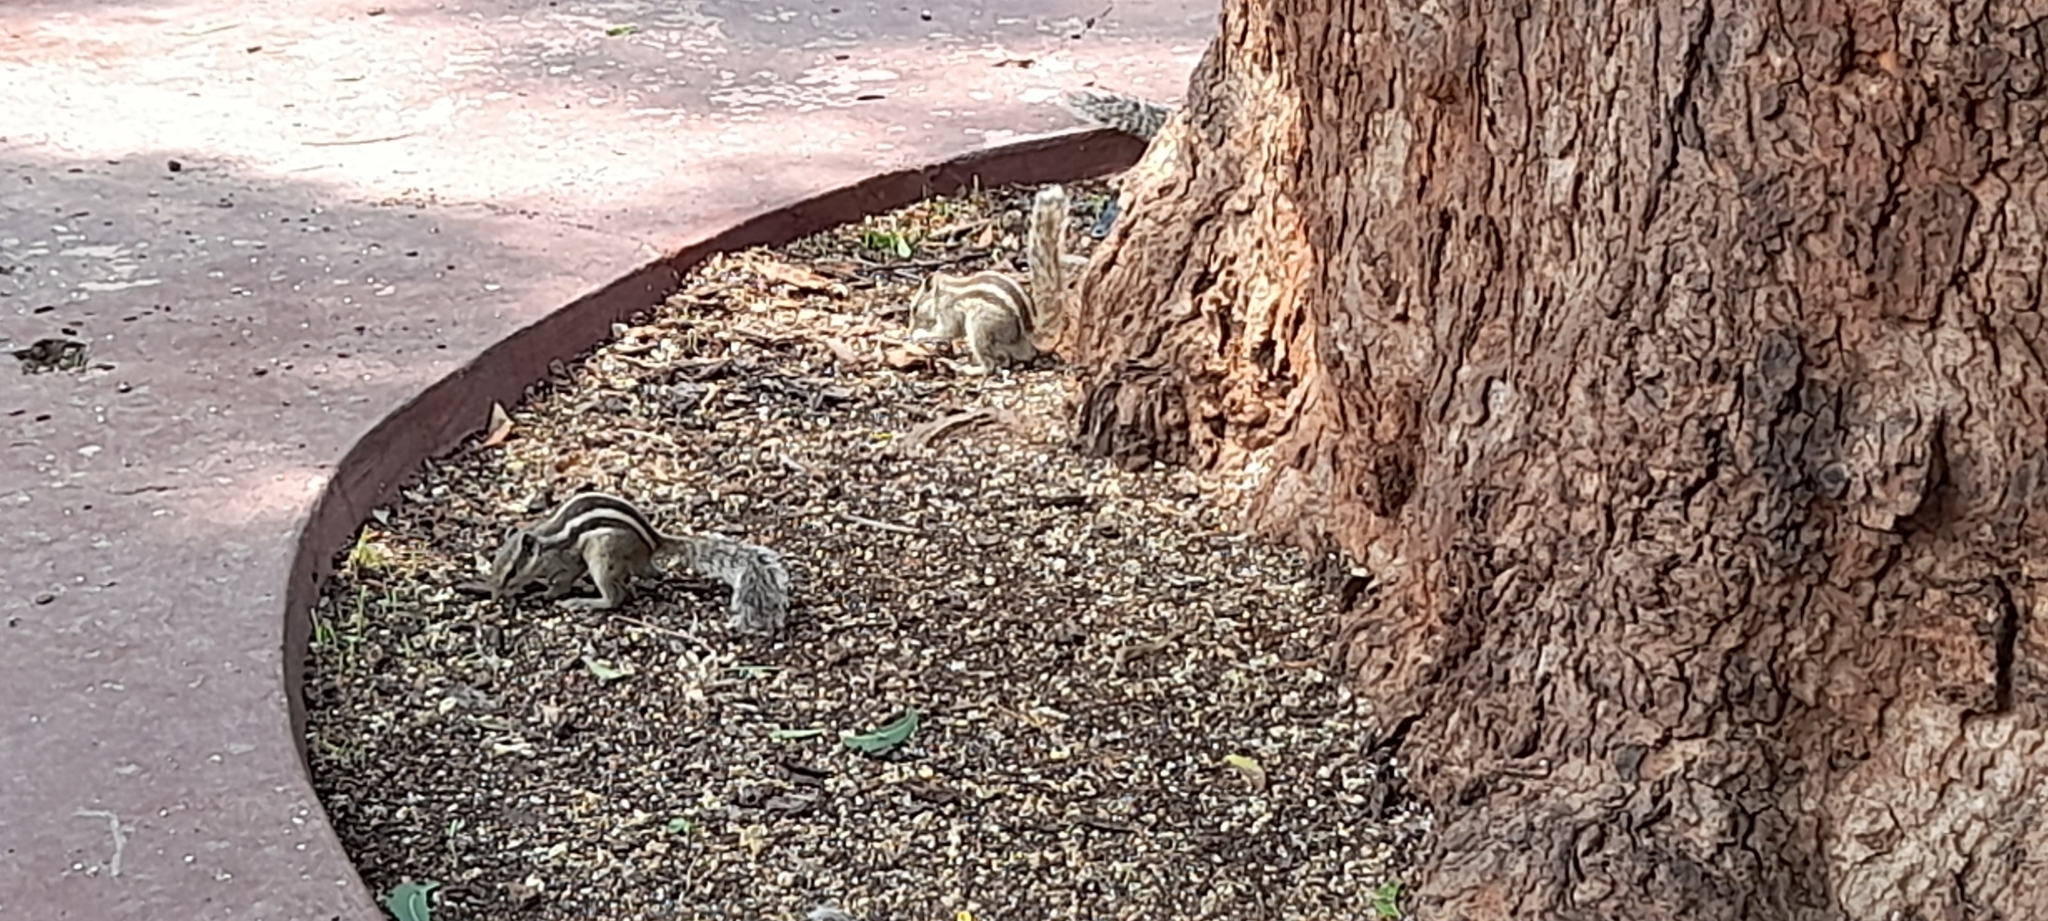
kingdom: Animalia
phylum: Chordata
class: Mammalia
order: Rodentia
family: Sciuridae
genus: Funambulus
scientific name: Funambulus pennantii
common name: Northern palm squirrel
